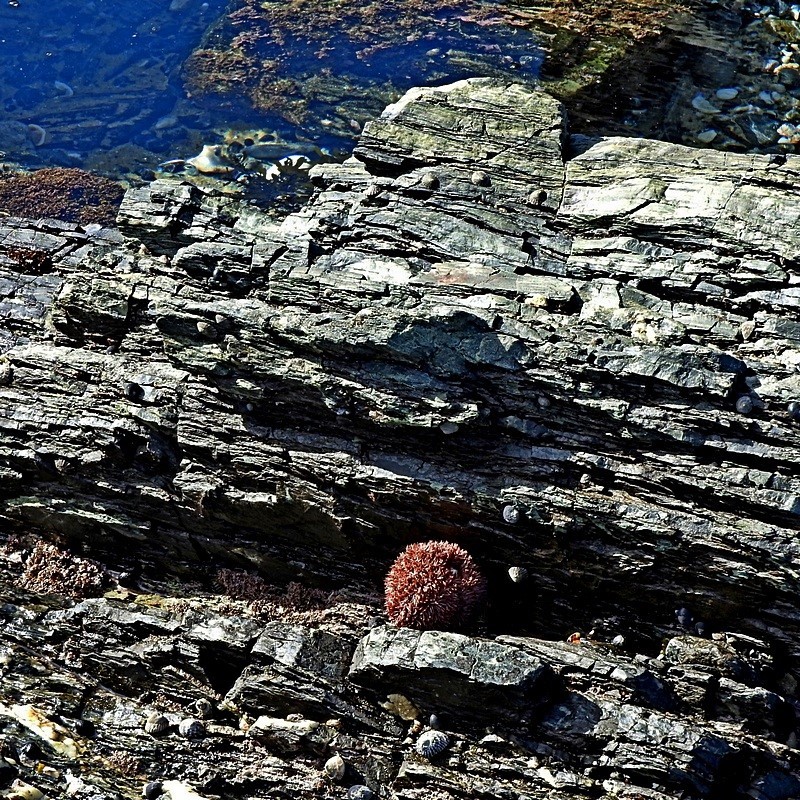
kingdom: Animalia
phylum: Echinodermata
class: Echinoidea
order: Camarodonta
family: Temnopleuridae
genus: Holopneustes
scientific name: Holopneustes purpurascens
